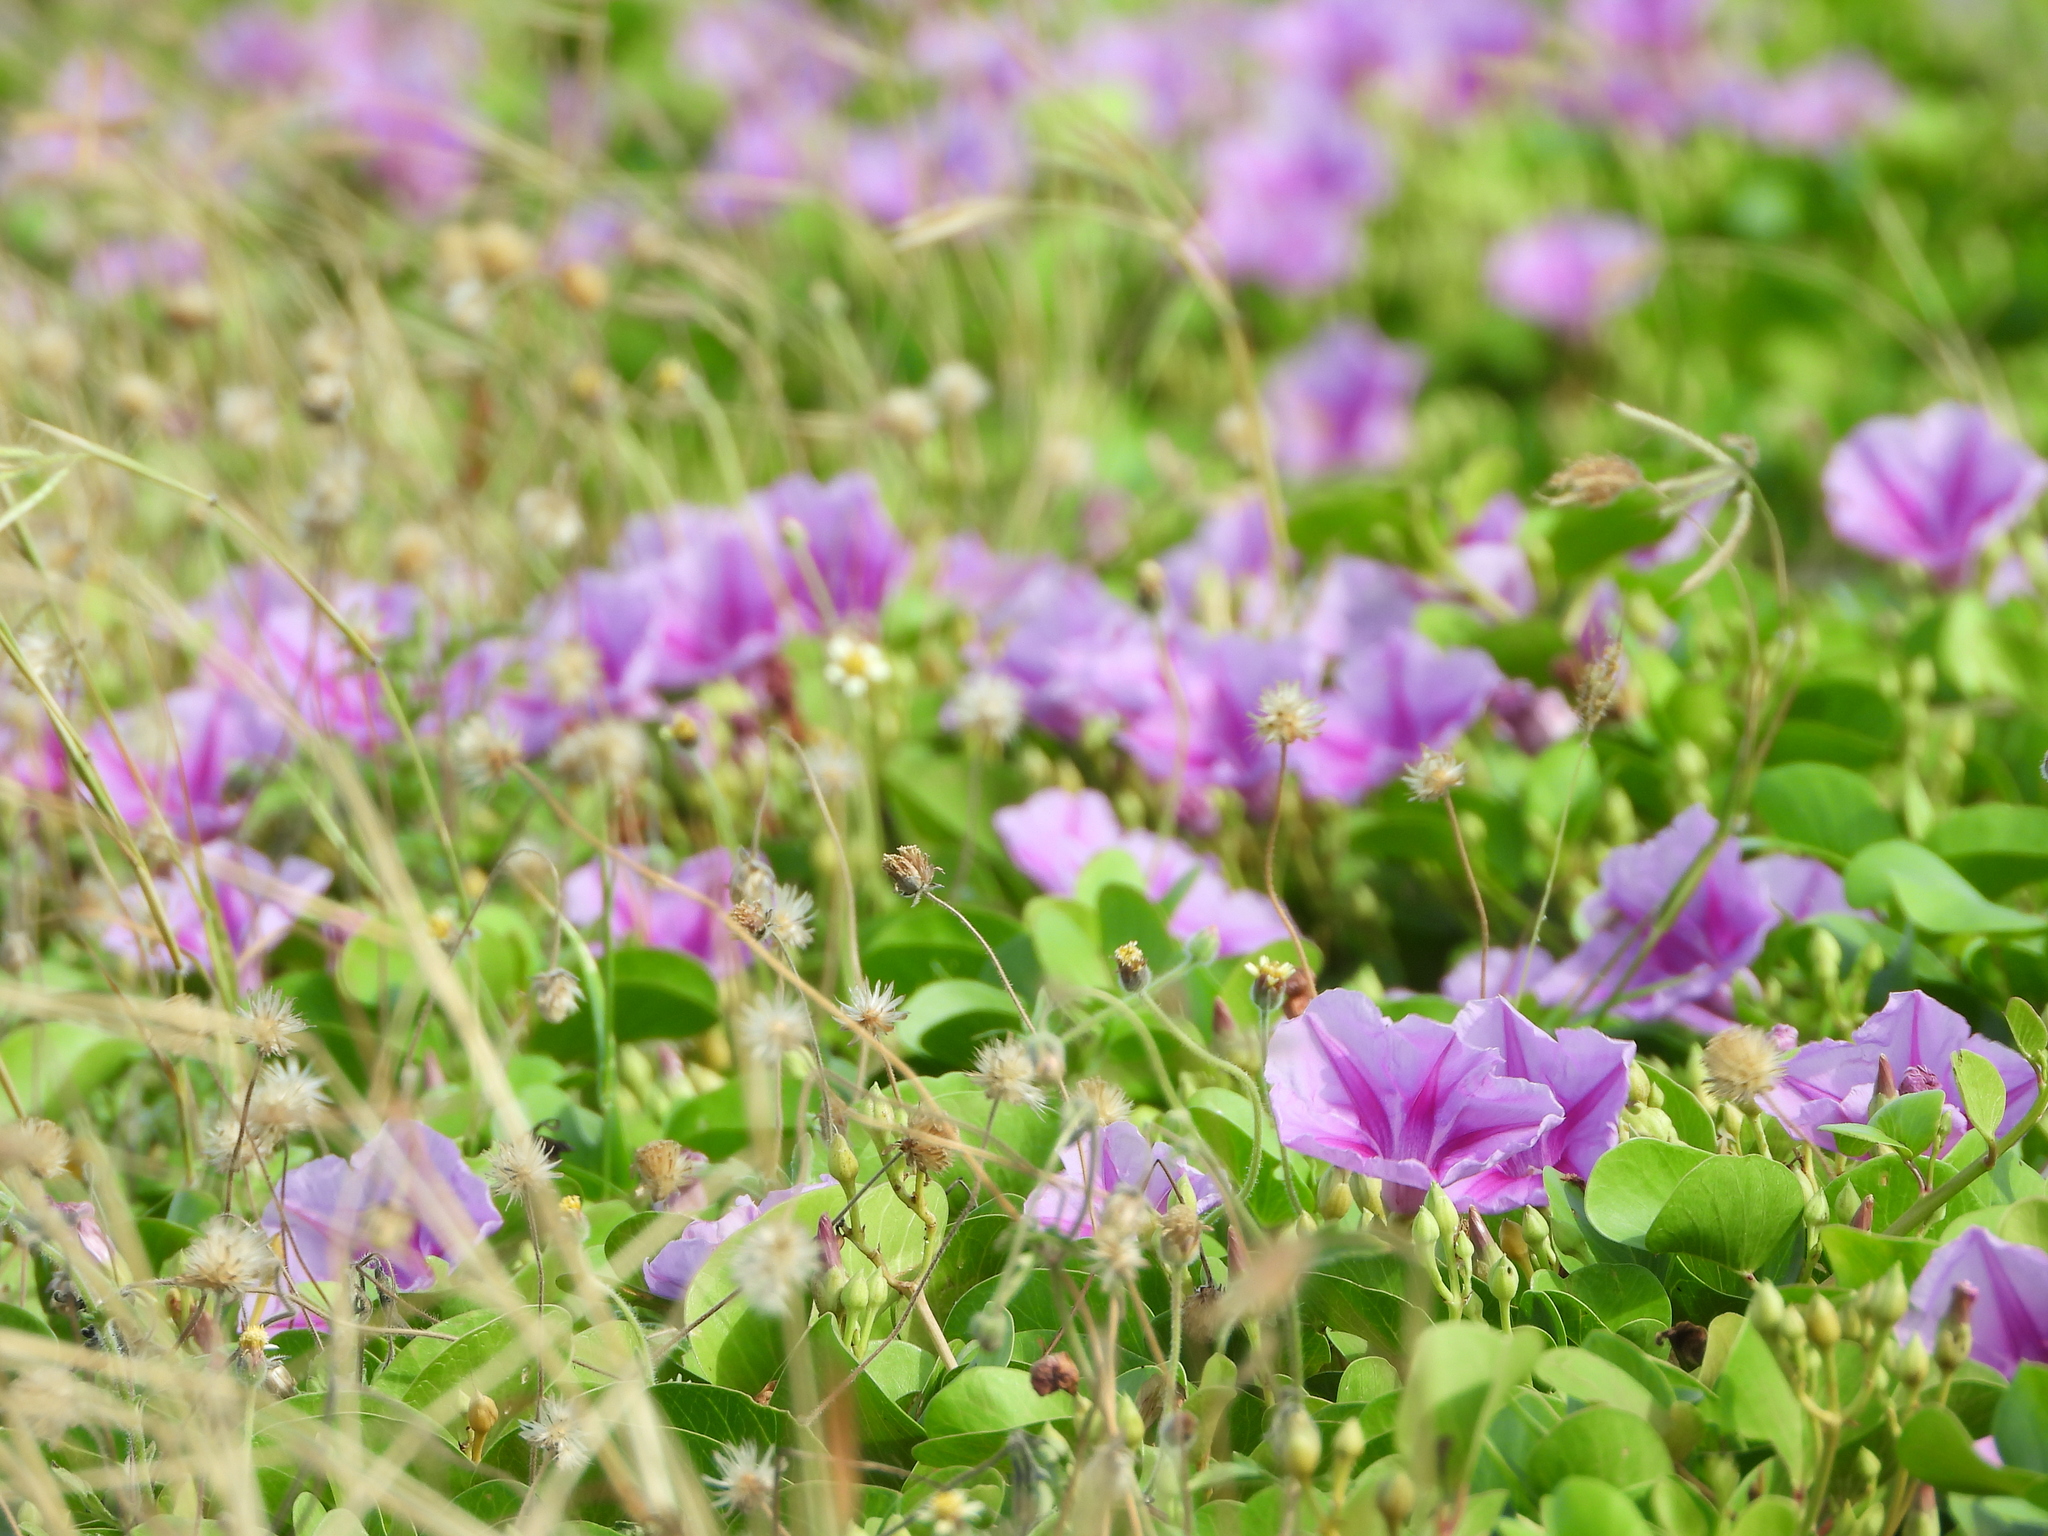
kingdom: Plantae
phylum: Tracheophyta
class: Magnoliopsida
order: Solanales
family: Convolvulaceae
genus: Ipomoea
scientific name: Ipomoea pes-caprae
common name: Beach morning glory
